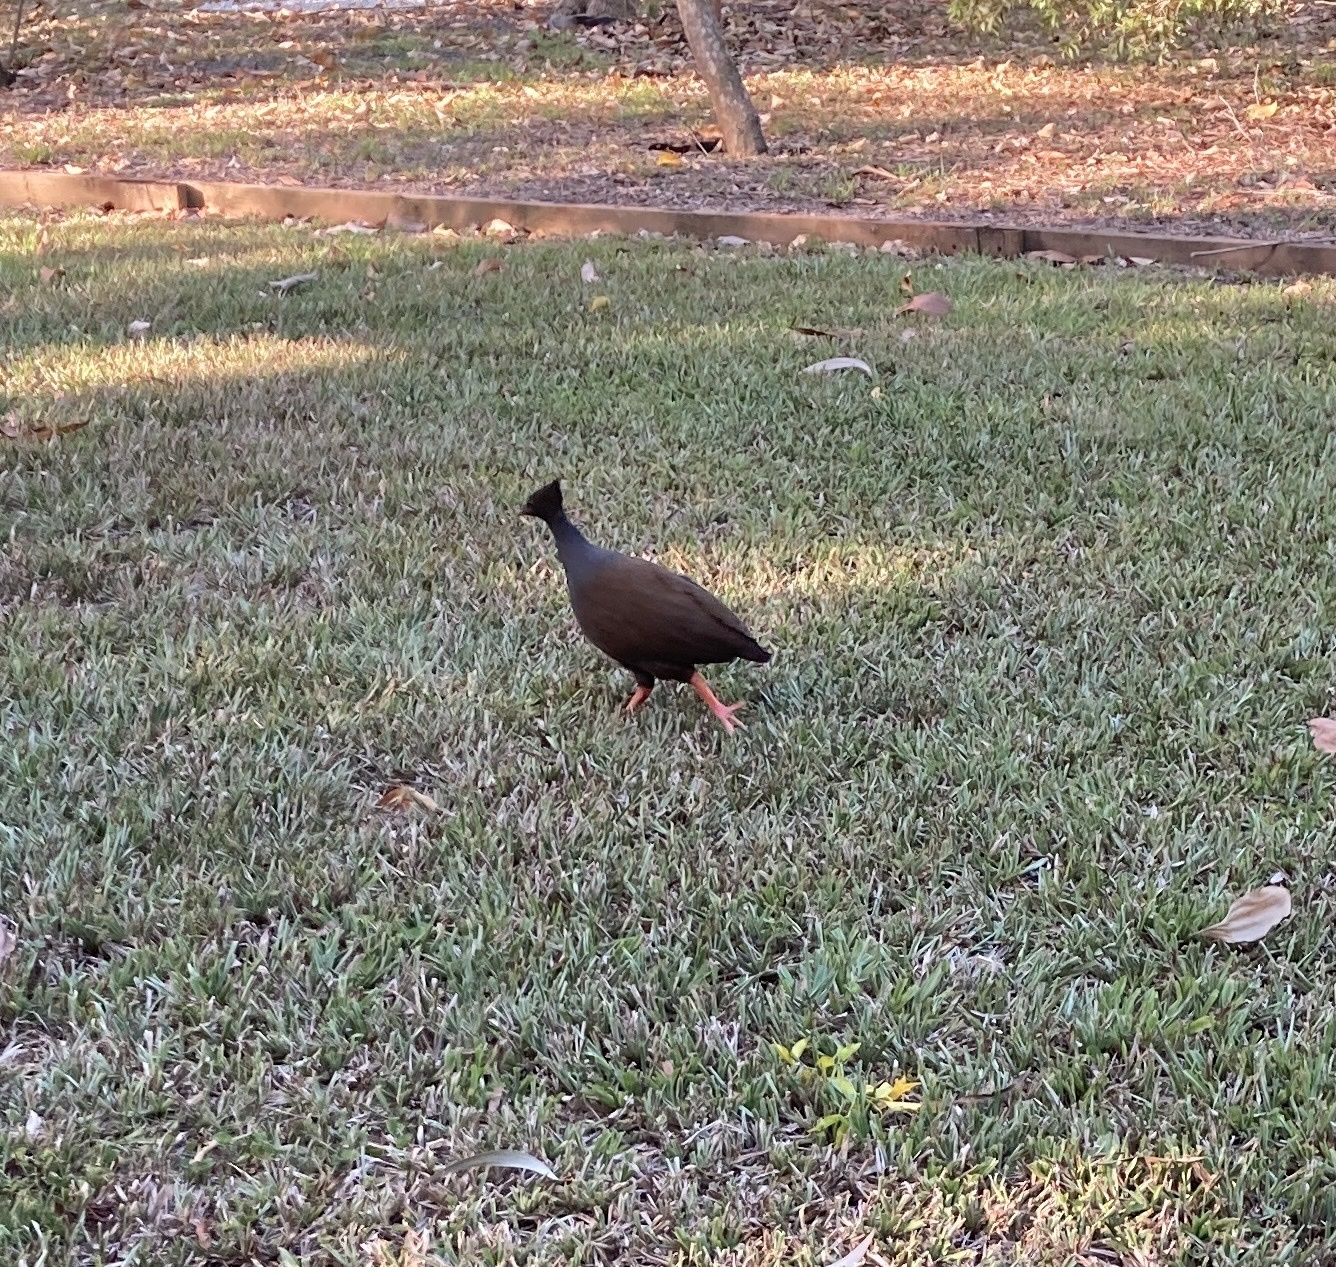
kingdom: Animalia
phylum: Chordata
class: Aves
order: Galliformes
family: Megapodiidae
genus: Megapodius
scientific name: Megapodius reinwardt
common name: Orange-footed scrubfowl
